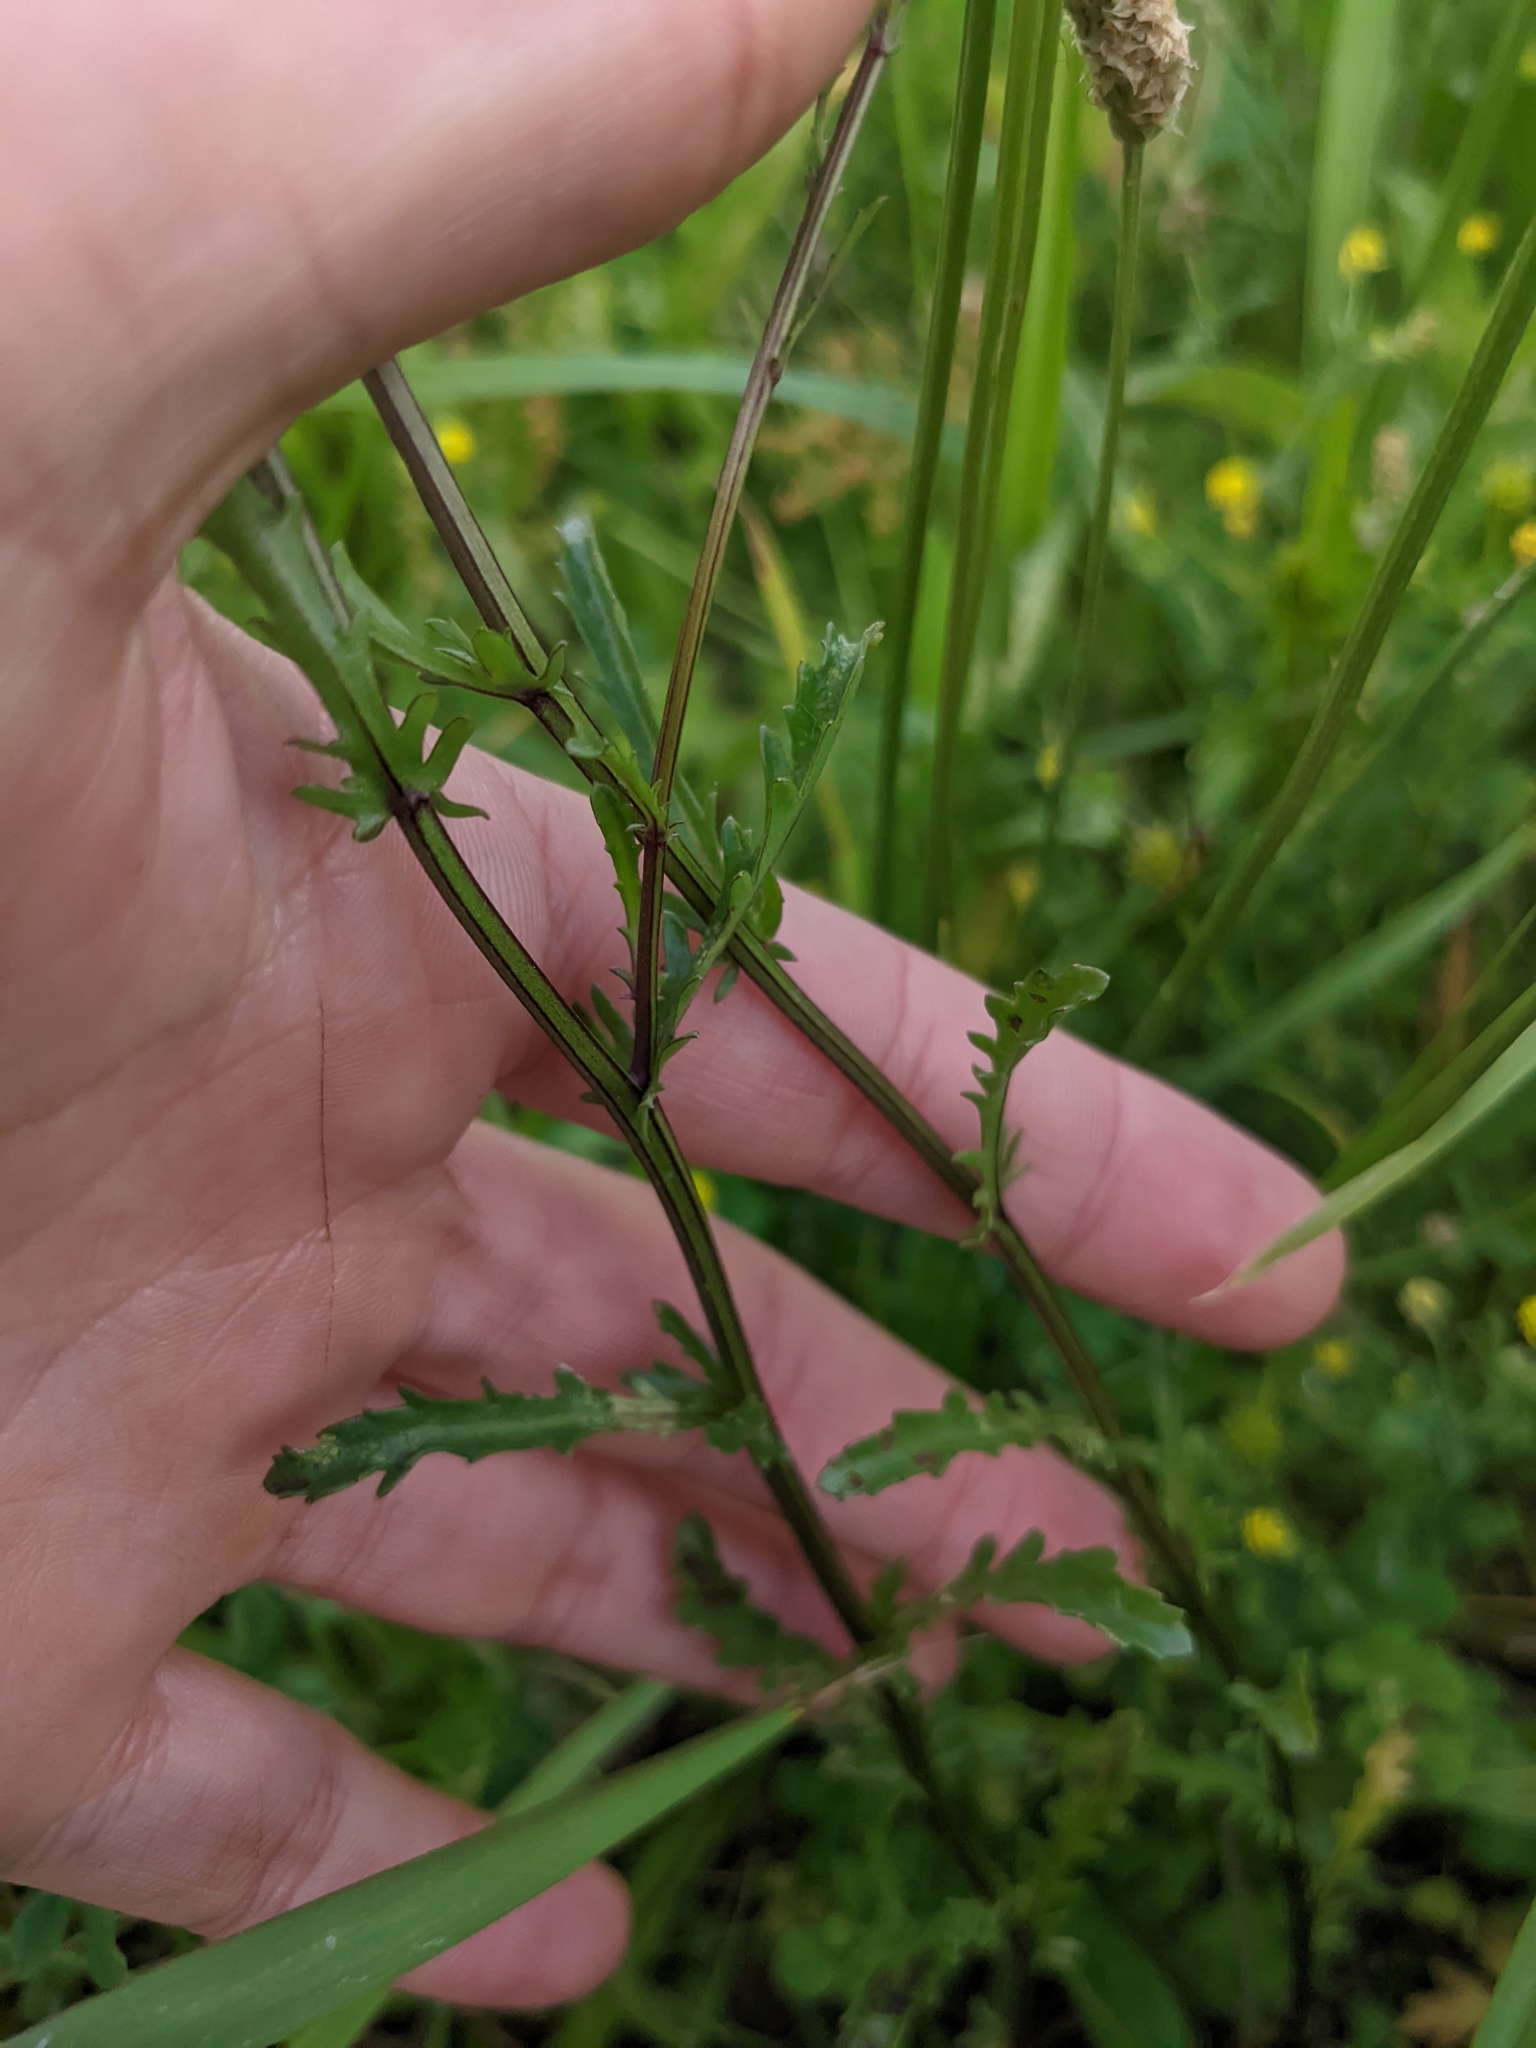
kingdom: Plantae
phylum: Tracheophyta
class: Magnoliopsida
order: Asterales
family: Asteraceae
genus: Leucanthemum
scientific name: Leucanthemum vulgare
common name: Oxeye daisy
